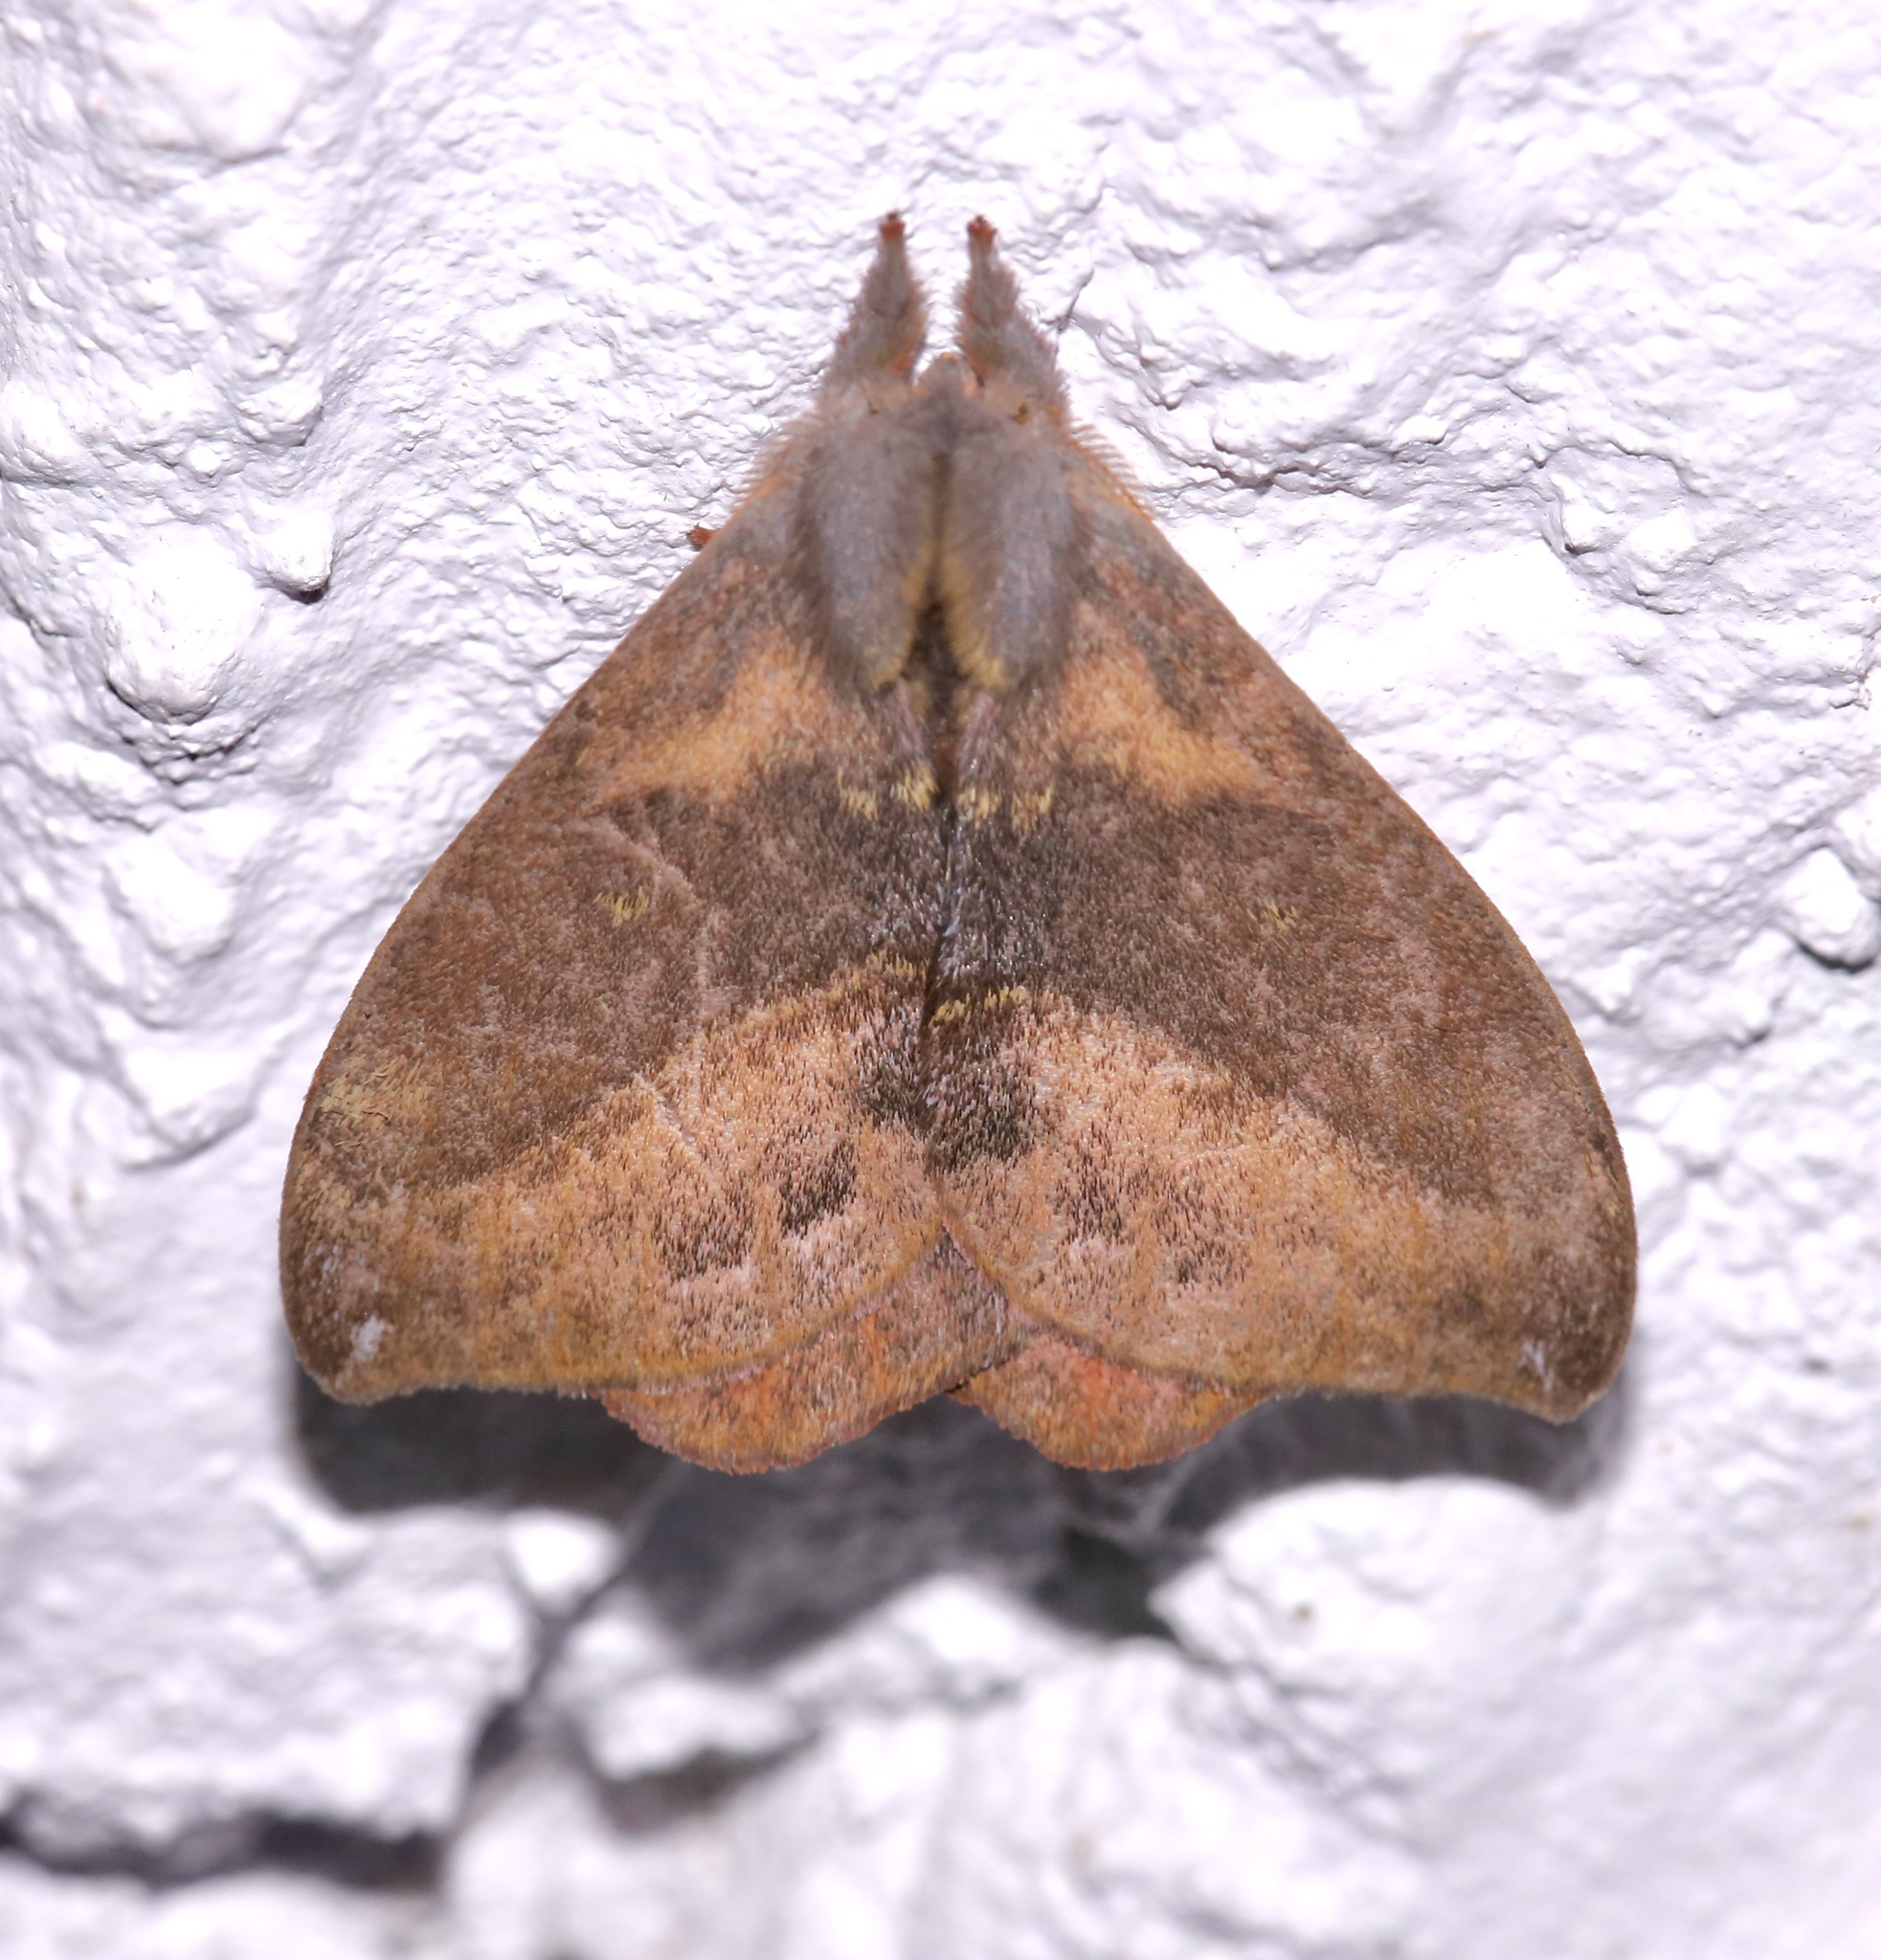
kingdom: Animalia
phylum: Arthropoda
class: Insecta
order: Lepidoptera
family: Saturniidae
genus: Hylesia
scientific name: Hylesia aeneides
